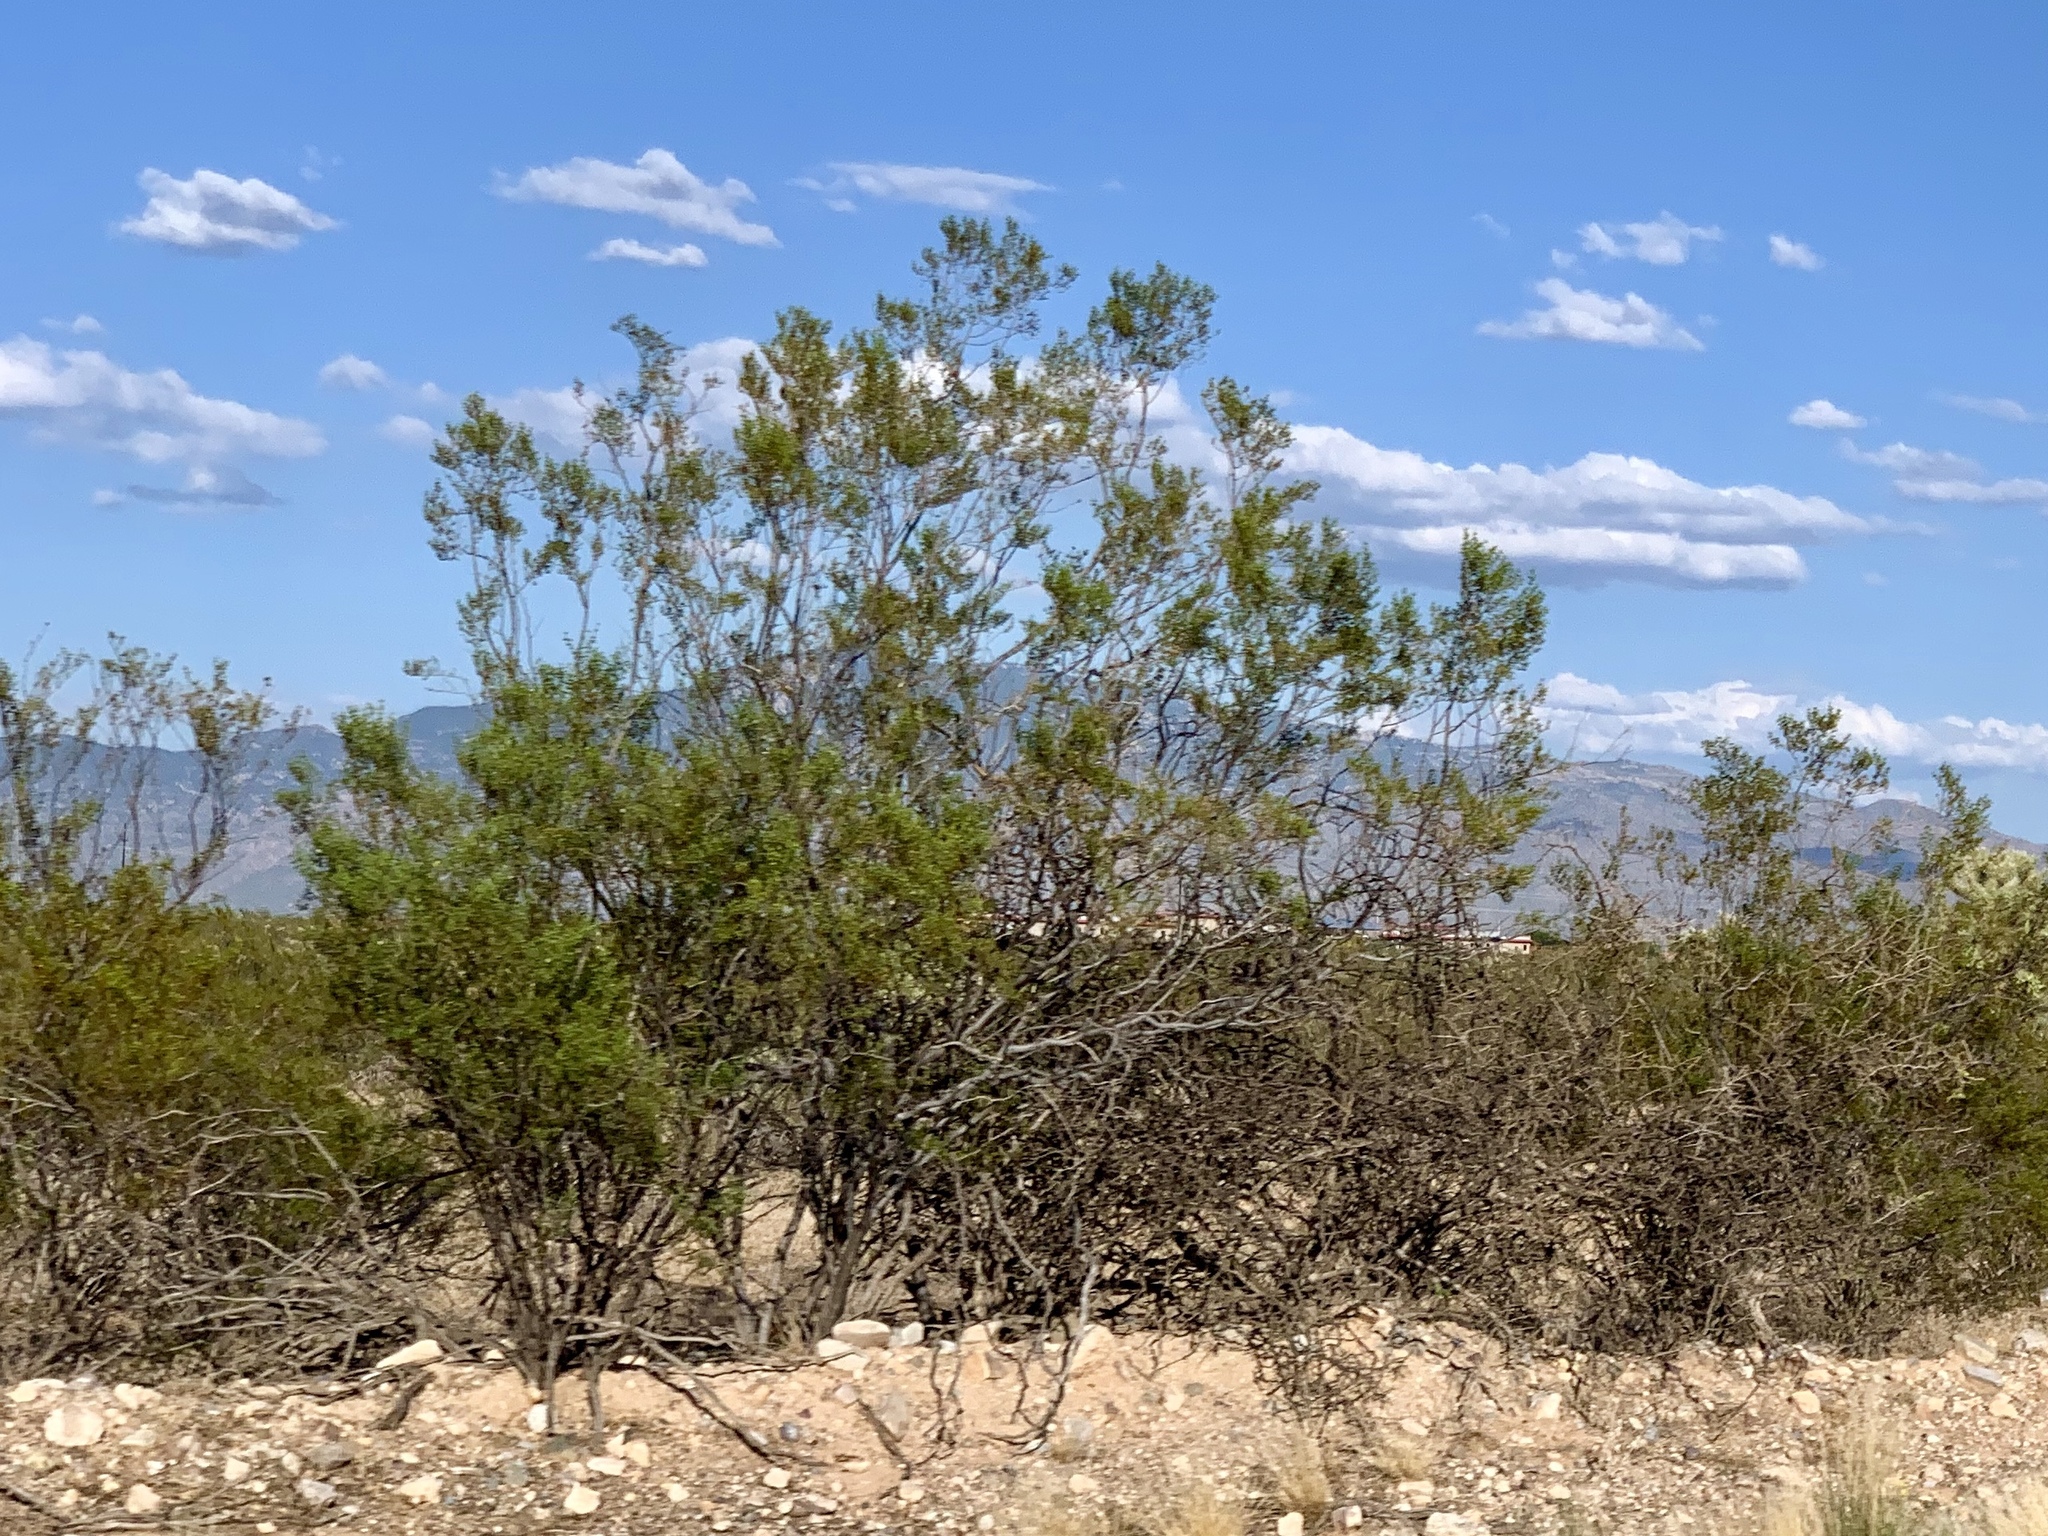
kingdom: Plantae
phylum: Tracheophyta
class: Magnoliopsida
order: Zygophyllales
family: Zygophyllaceae
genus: Larrea
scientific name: Larrea tridentata
